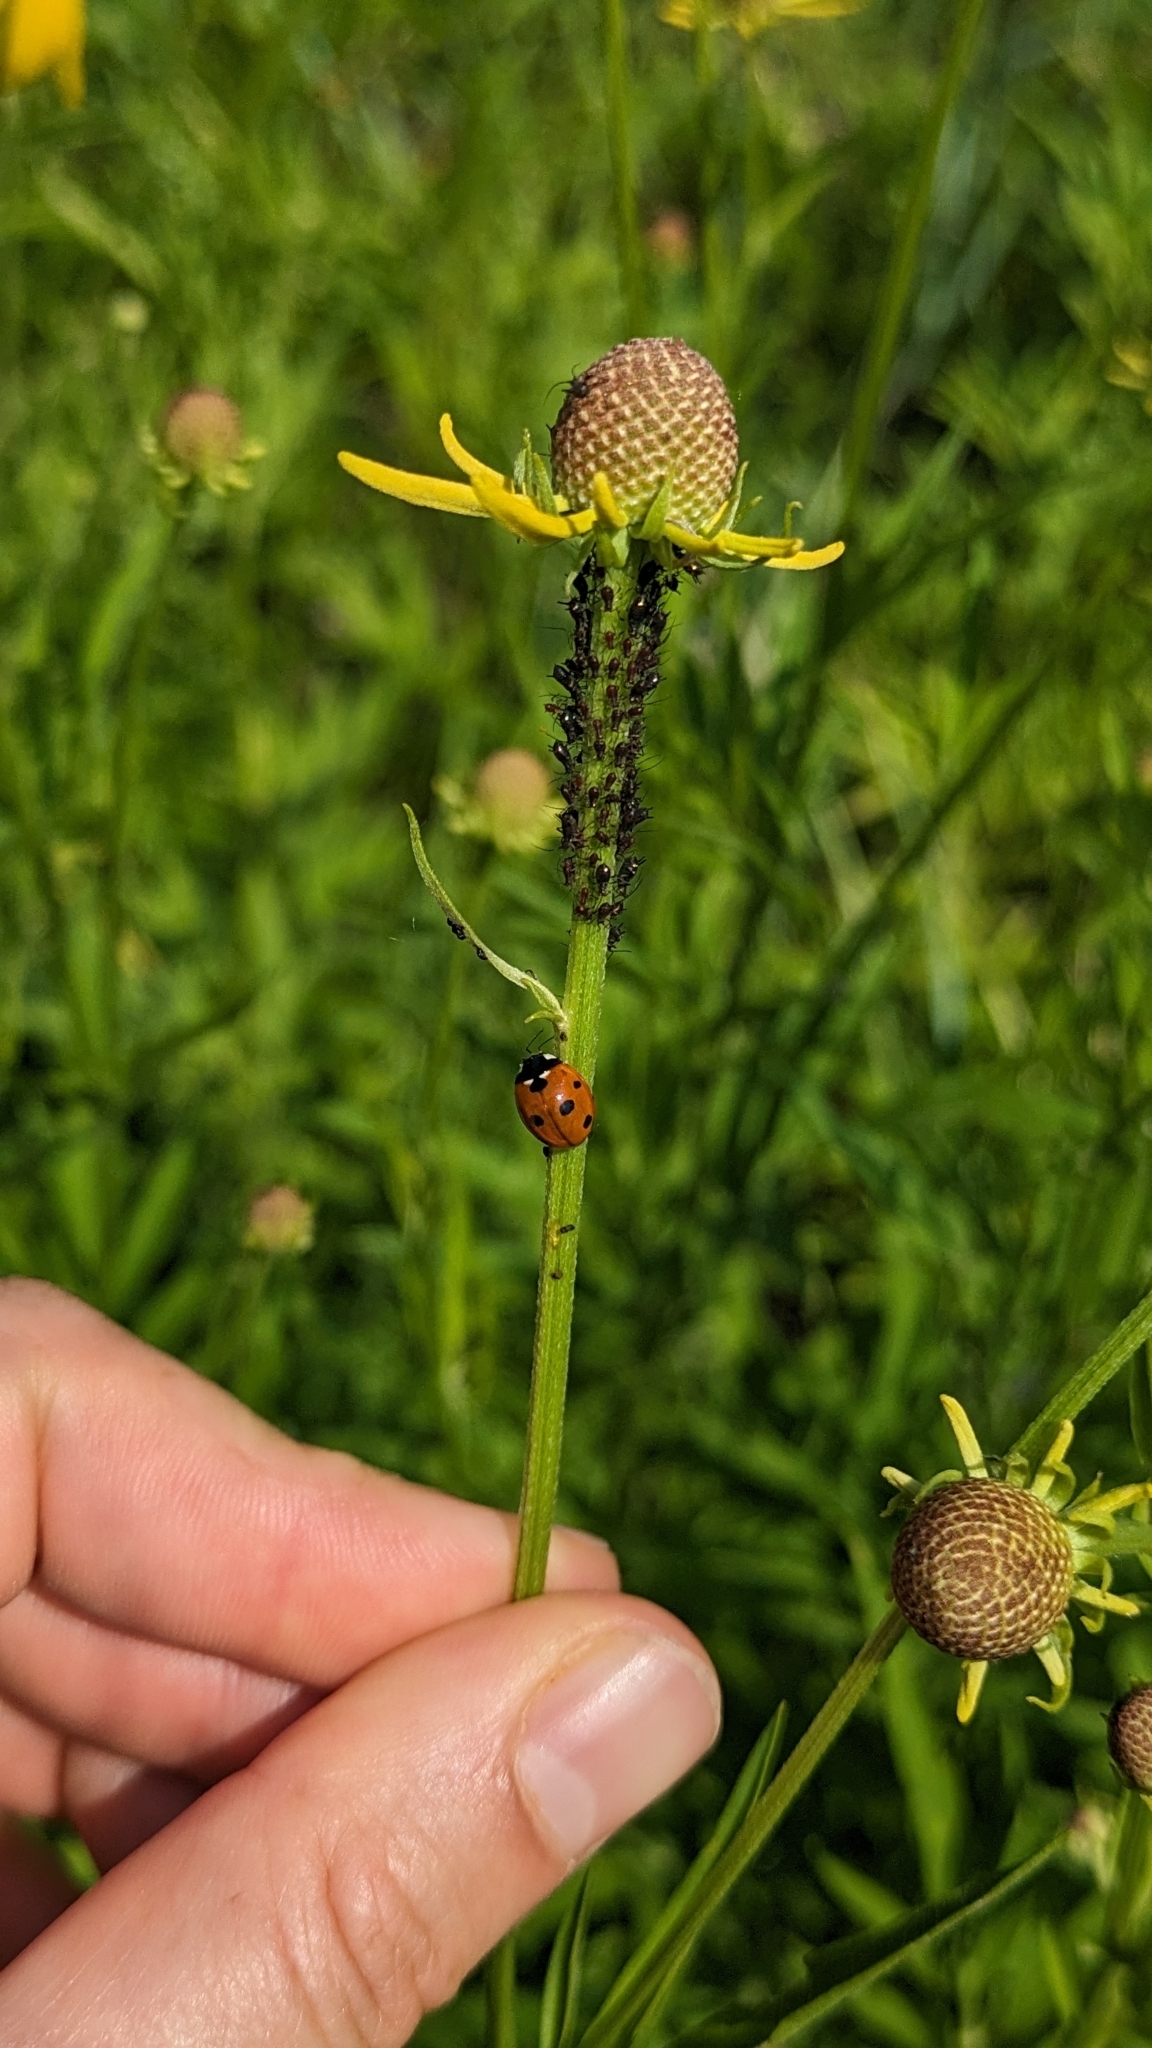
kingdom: Animalia
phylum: Arthropoda
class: Insecta
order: Coleoptera
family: Coccinellidae
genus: Coccinella
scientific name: Coccinella septempunctata
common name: Sevenspotted lady beetle
